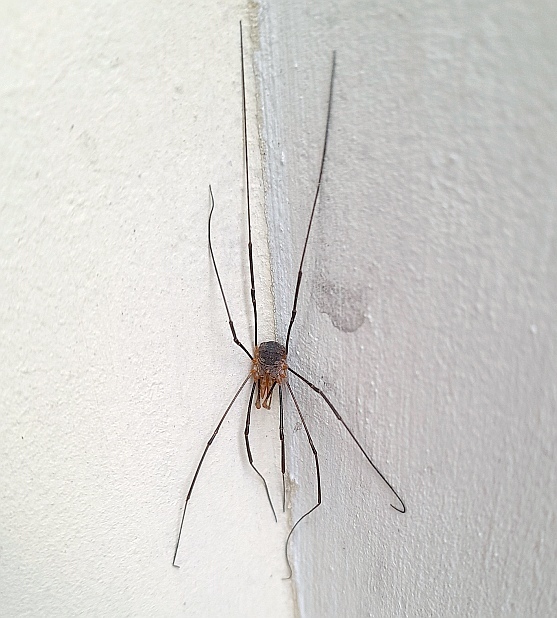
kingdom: Animalia
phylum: Arthropoda
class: Arachnida
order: Opiliones
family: Phalangiidae
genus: Phalangium
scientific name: Phalangium opilio
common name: Daddy longleg
